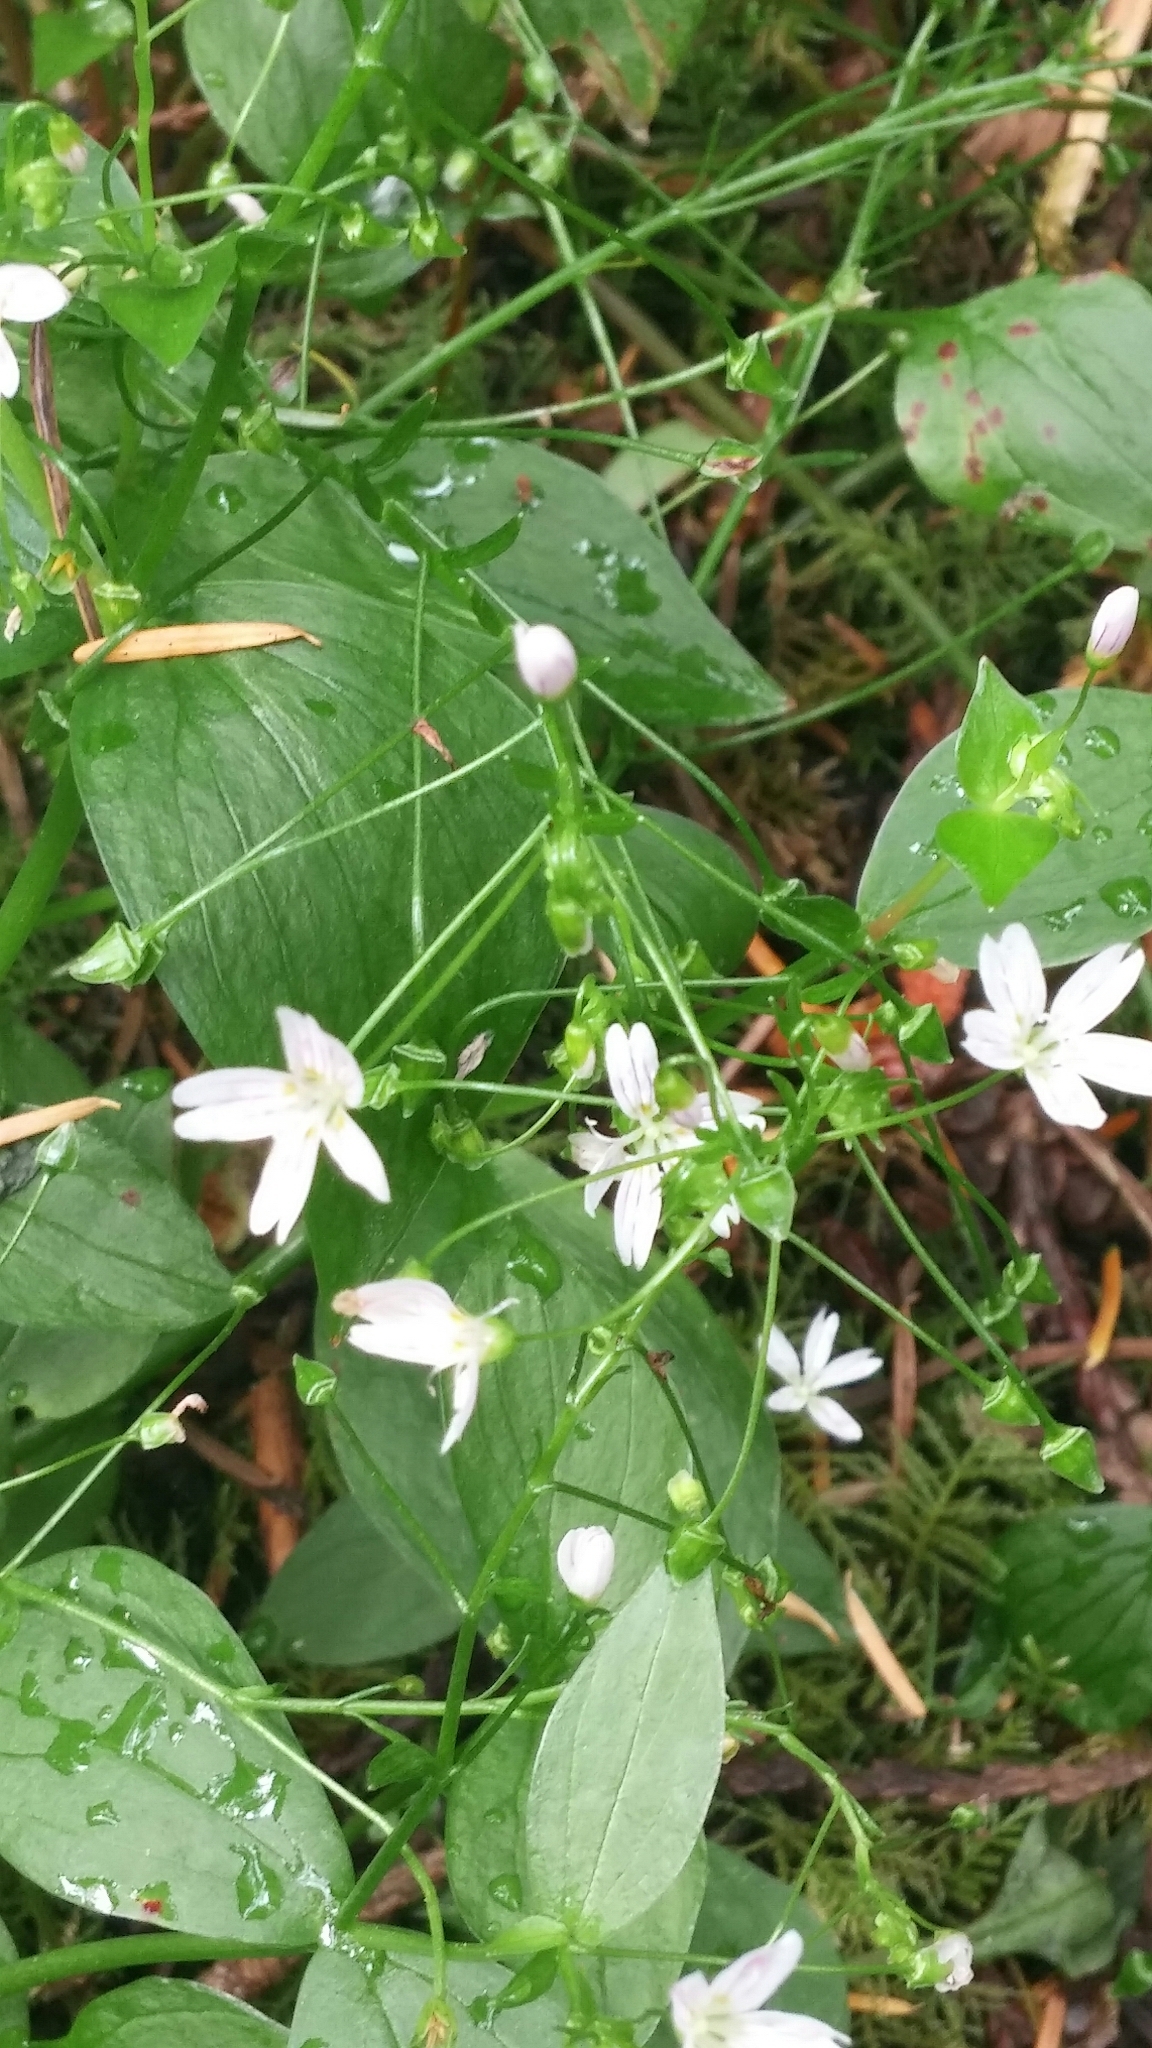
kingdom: Plantae
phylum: Tracheophyta
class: Magnoliopsida
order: Caryophyllales
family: Montiaceae
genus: Claytonia
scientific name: Claytonia sibirica
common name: Pink purslane
